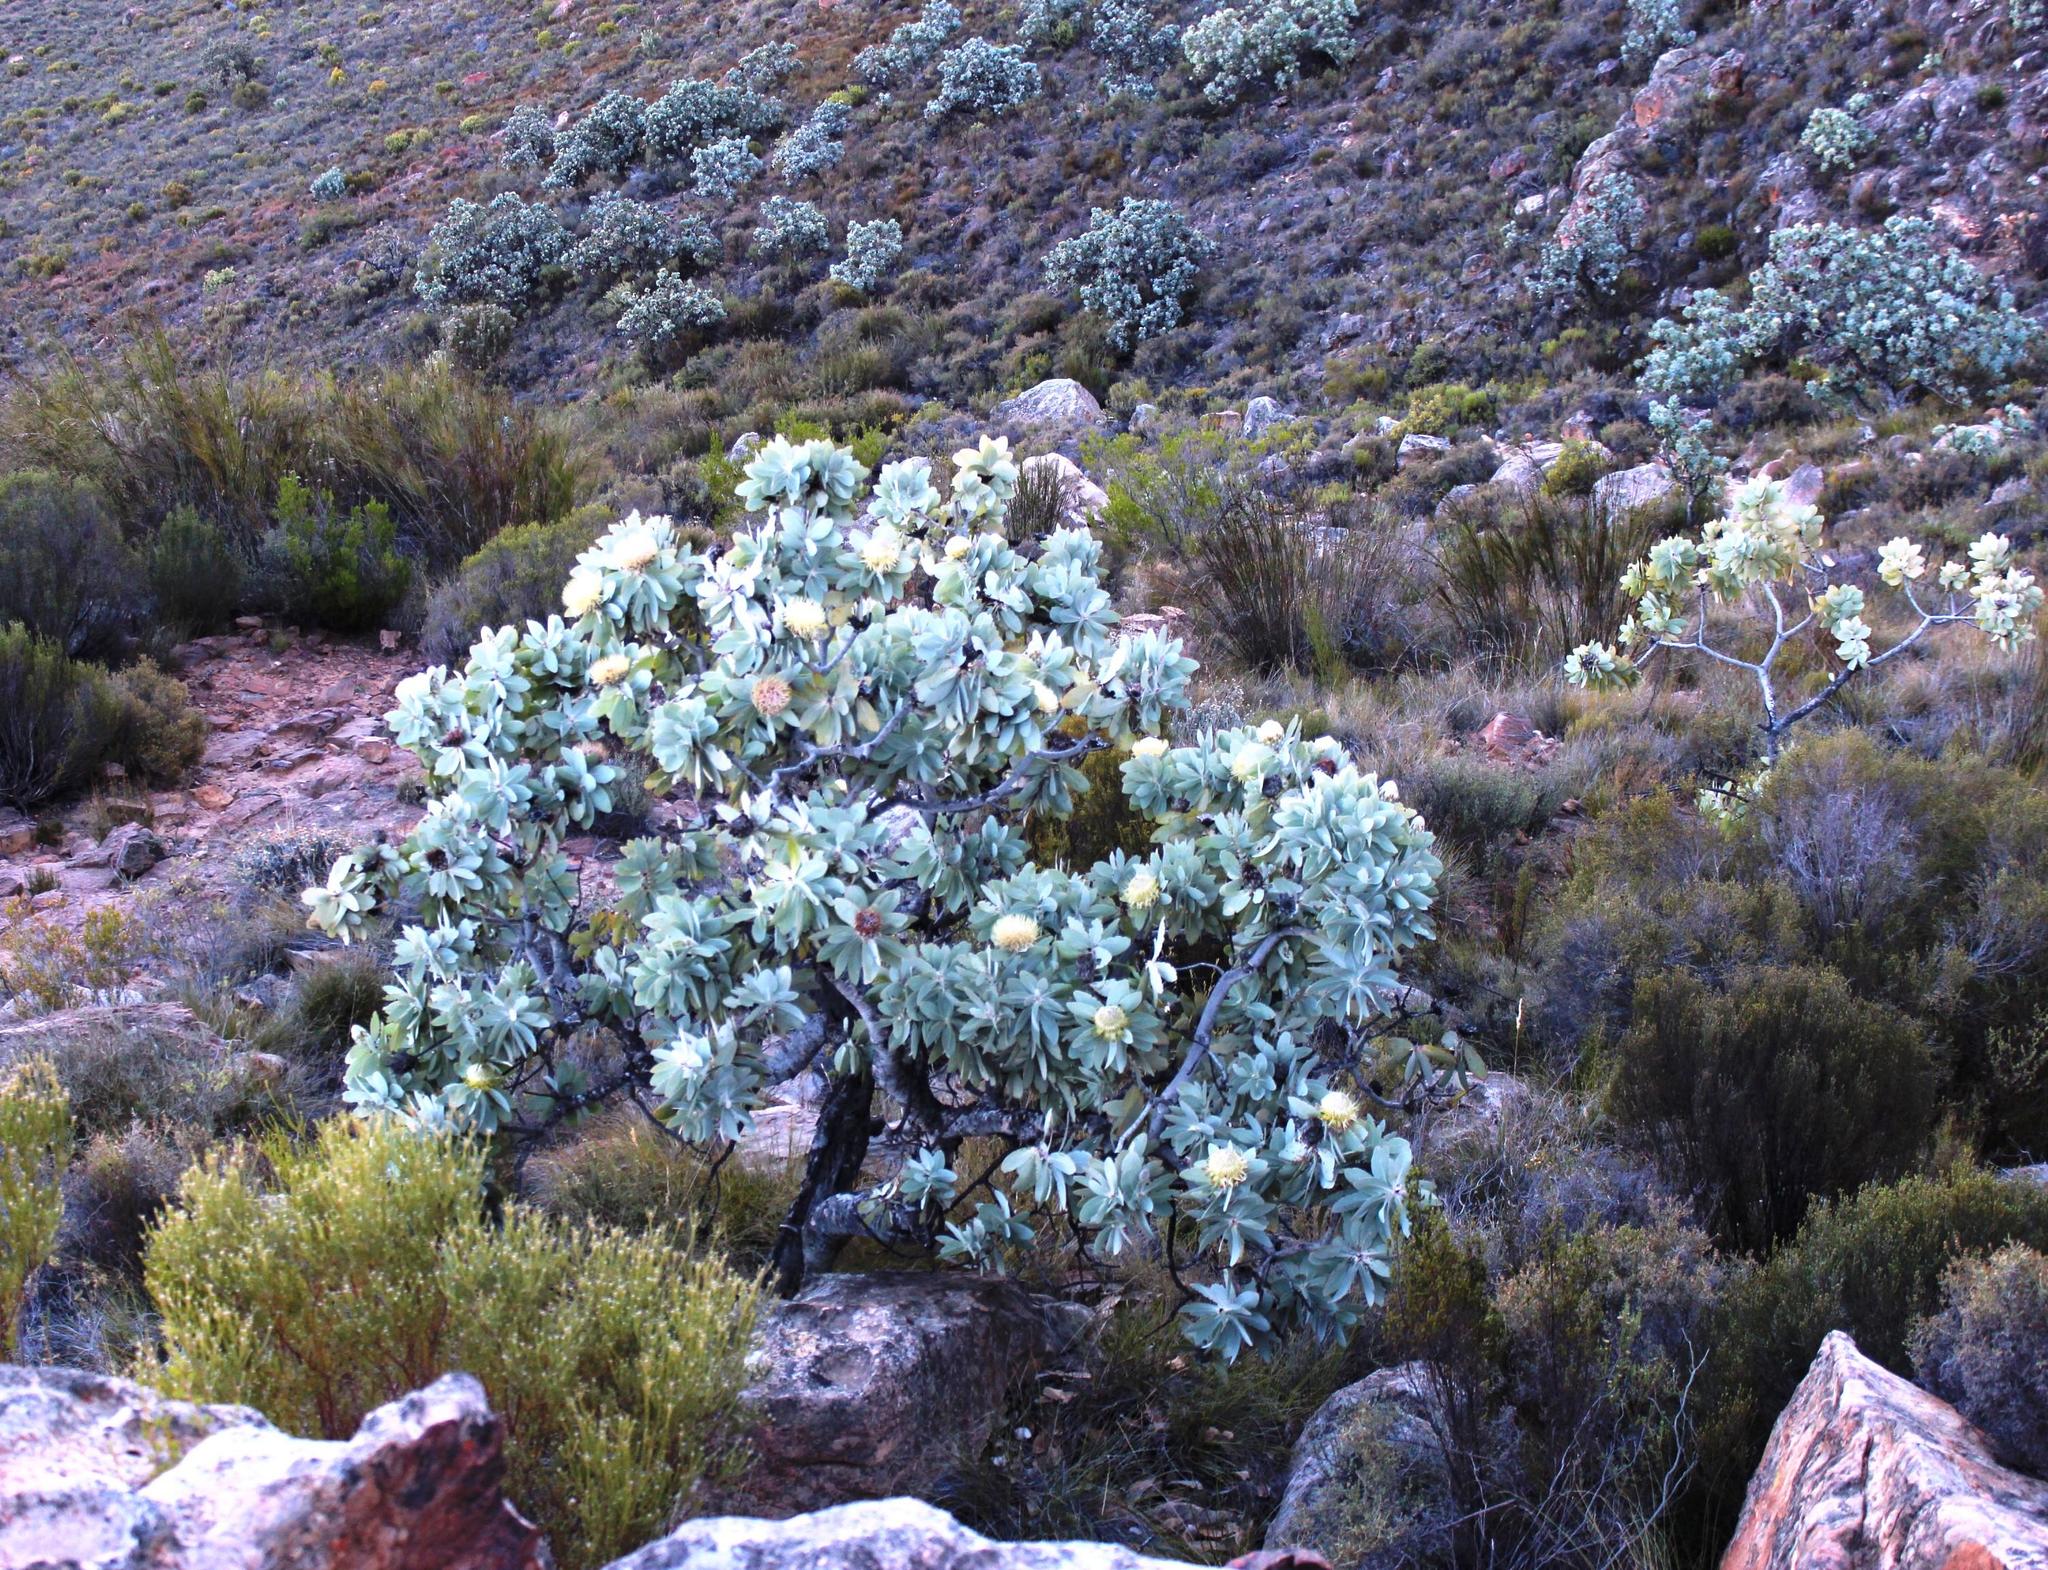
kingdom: Plantae
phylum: Tracheophyta
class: Magnoliopsida
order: Proteales
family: Proteaceae
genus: Protea
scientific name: Protea nitida
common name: Tree protea
